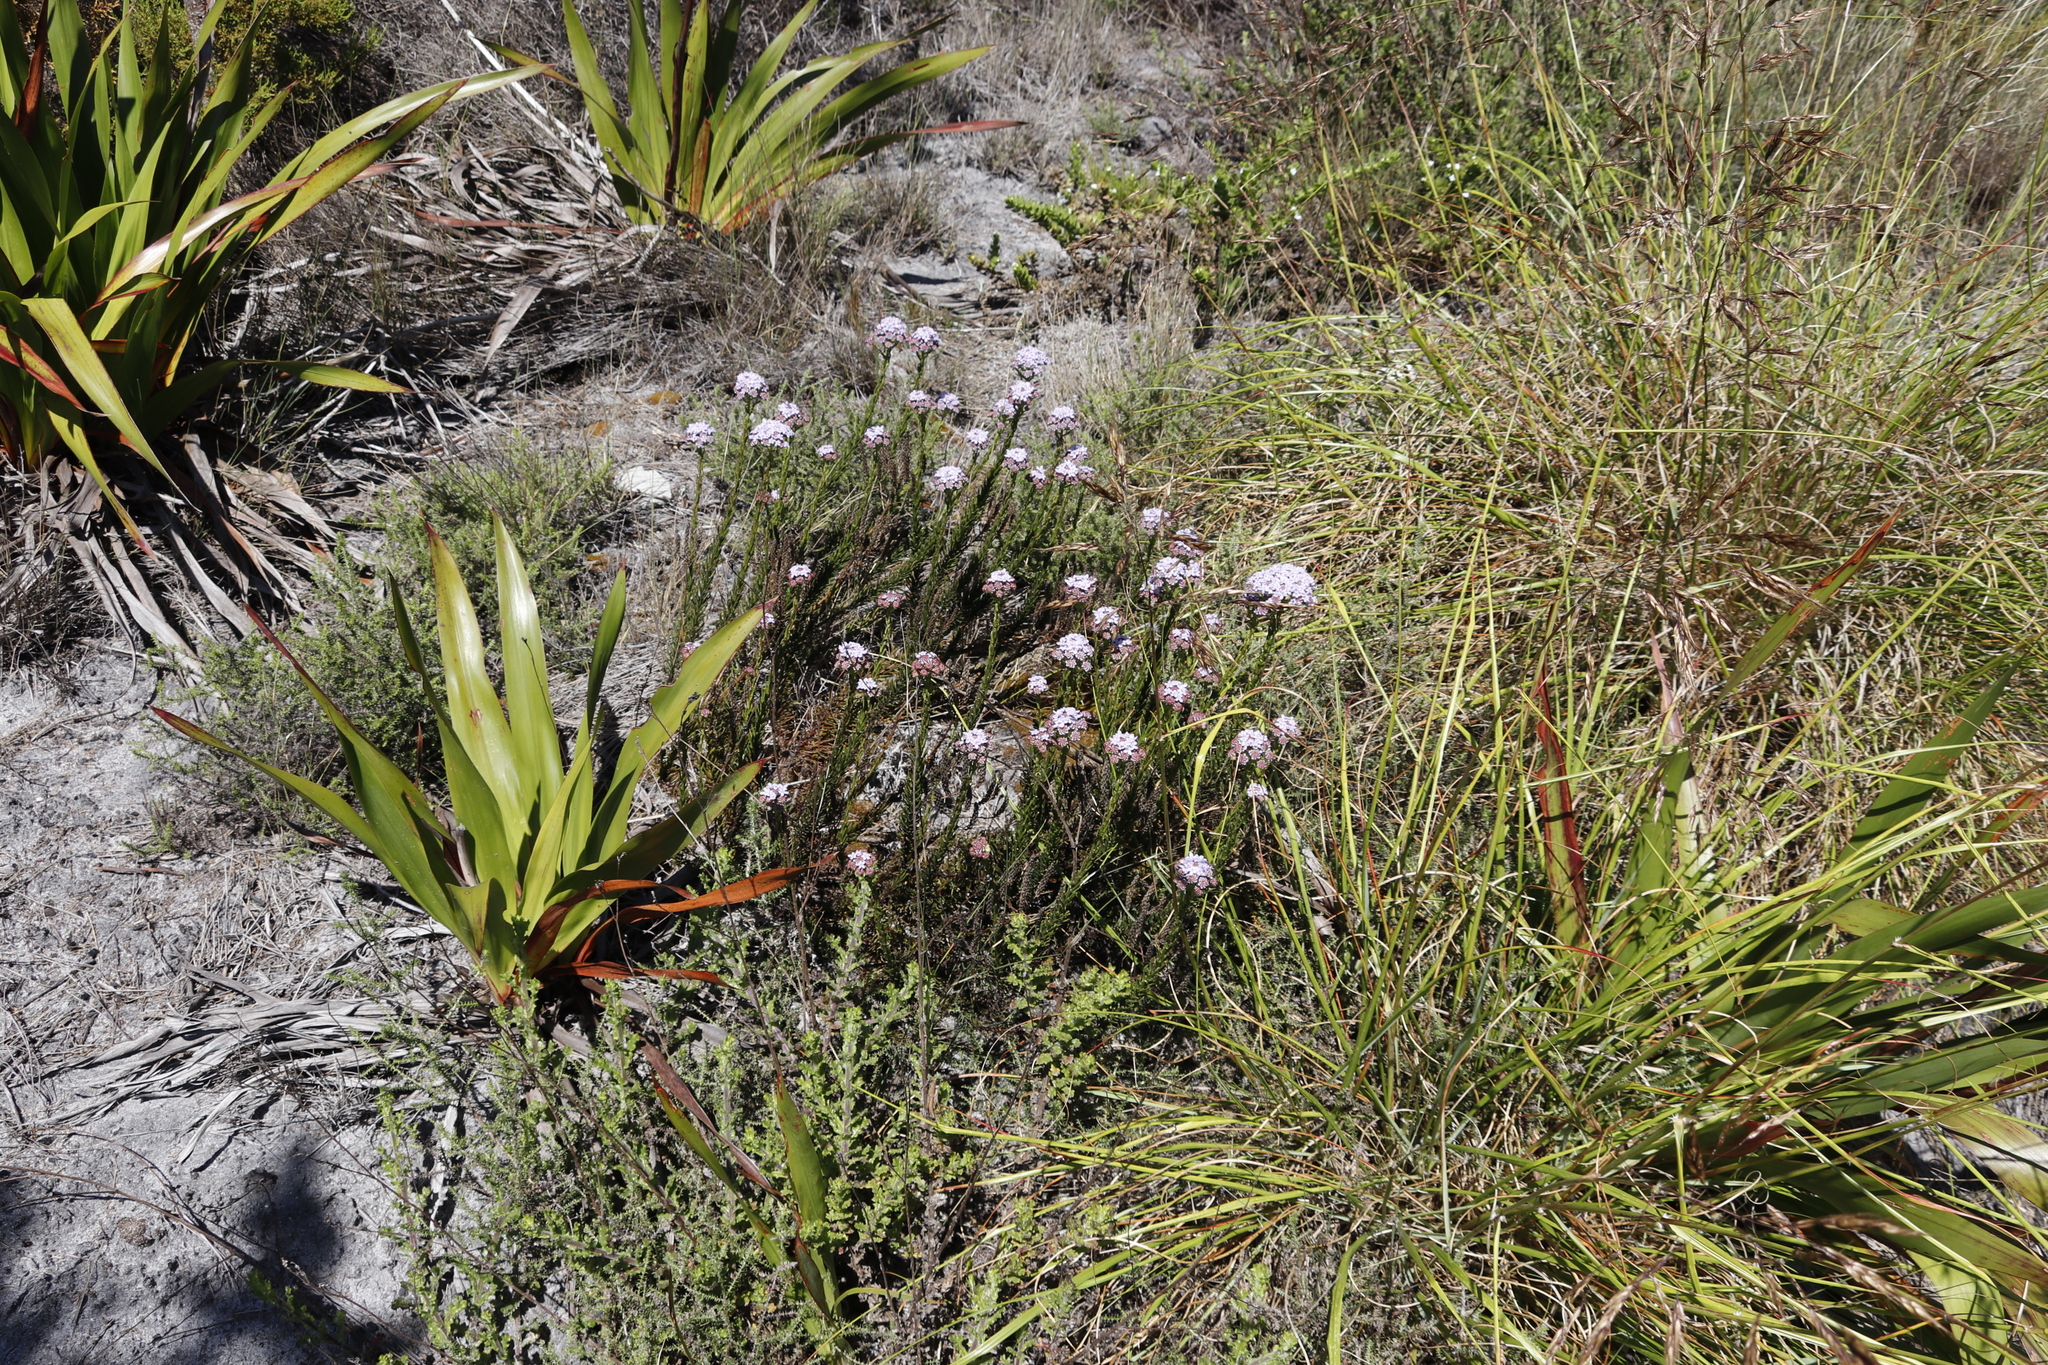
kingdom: Plantae
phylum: Tracheophyta
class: Magnoliopsida
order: Lamiales
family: Scrophulariaceae
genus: Pseudoselago
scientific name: Pseudoselago spuria
